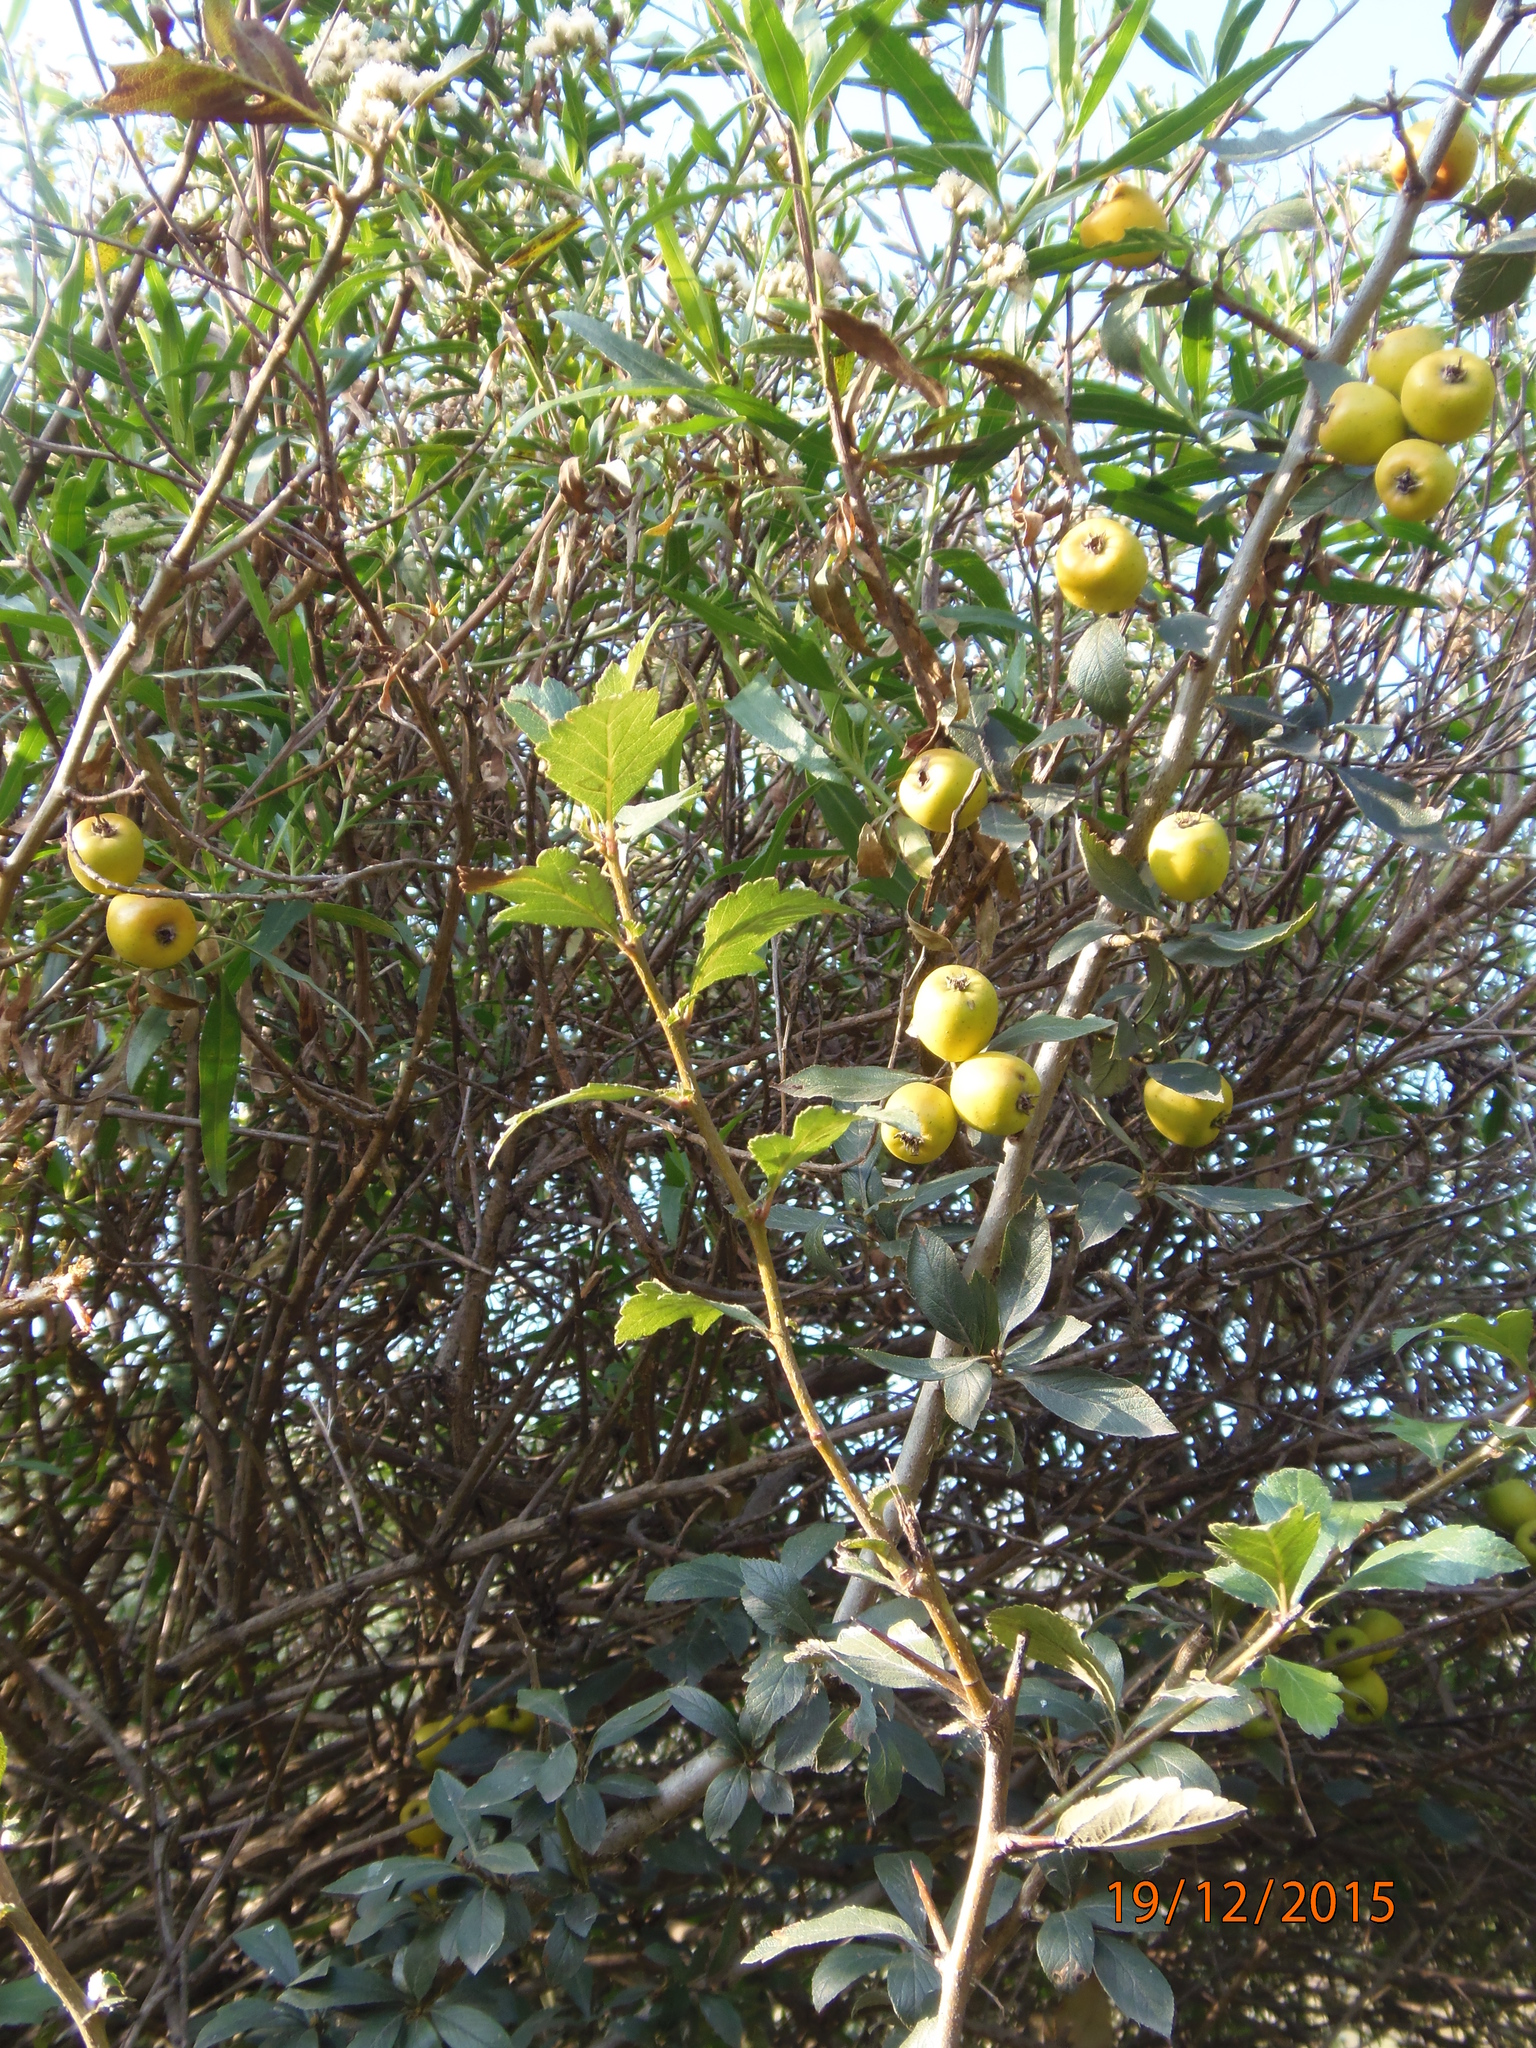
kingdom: Plantae
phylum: Tracheophyta
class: Magnoliopsida
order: Rosales
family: Rosaceae
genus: Crataegus
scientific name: Crataegus mexicana
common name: Mexican hawthorn
